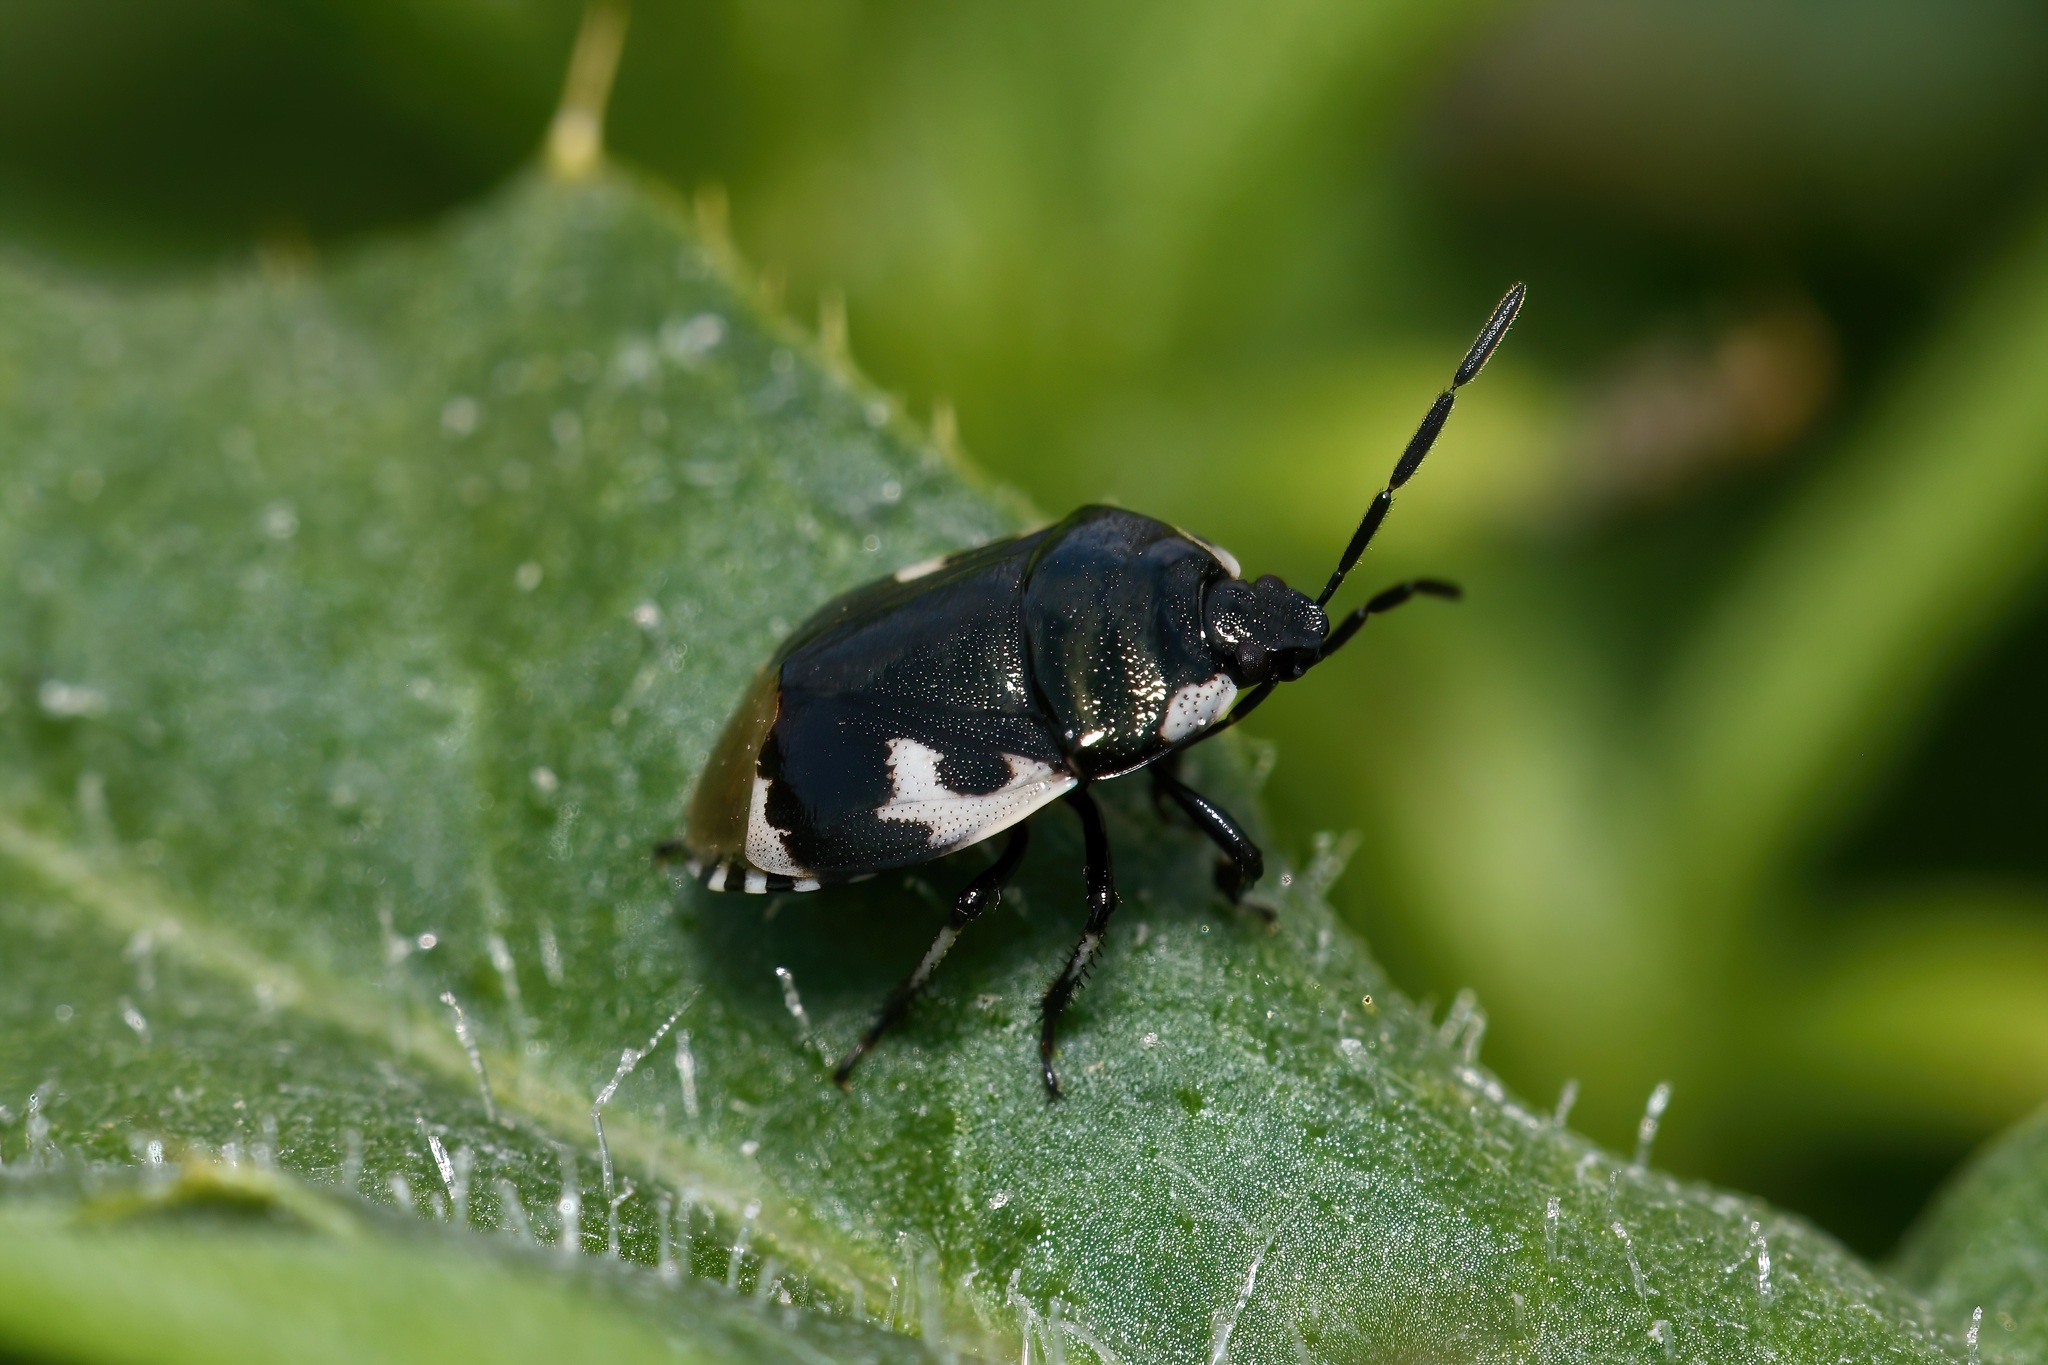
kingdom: Animalia
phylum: Arthropoda
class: Insecta
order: Hemiptera
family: Cydnidae
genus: Tritomegas
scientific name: Tritomegas bicolor
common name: Pied shieldbug
